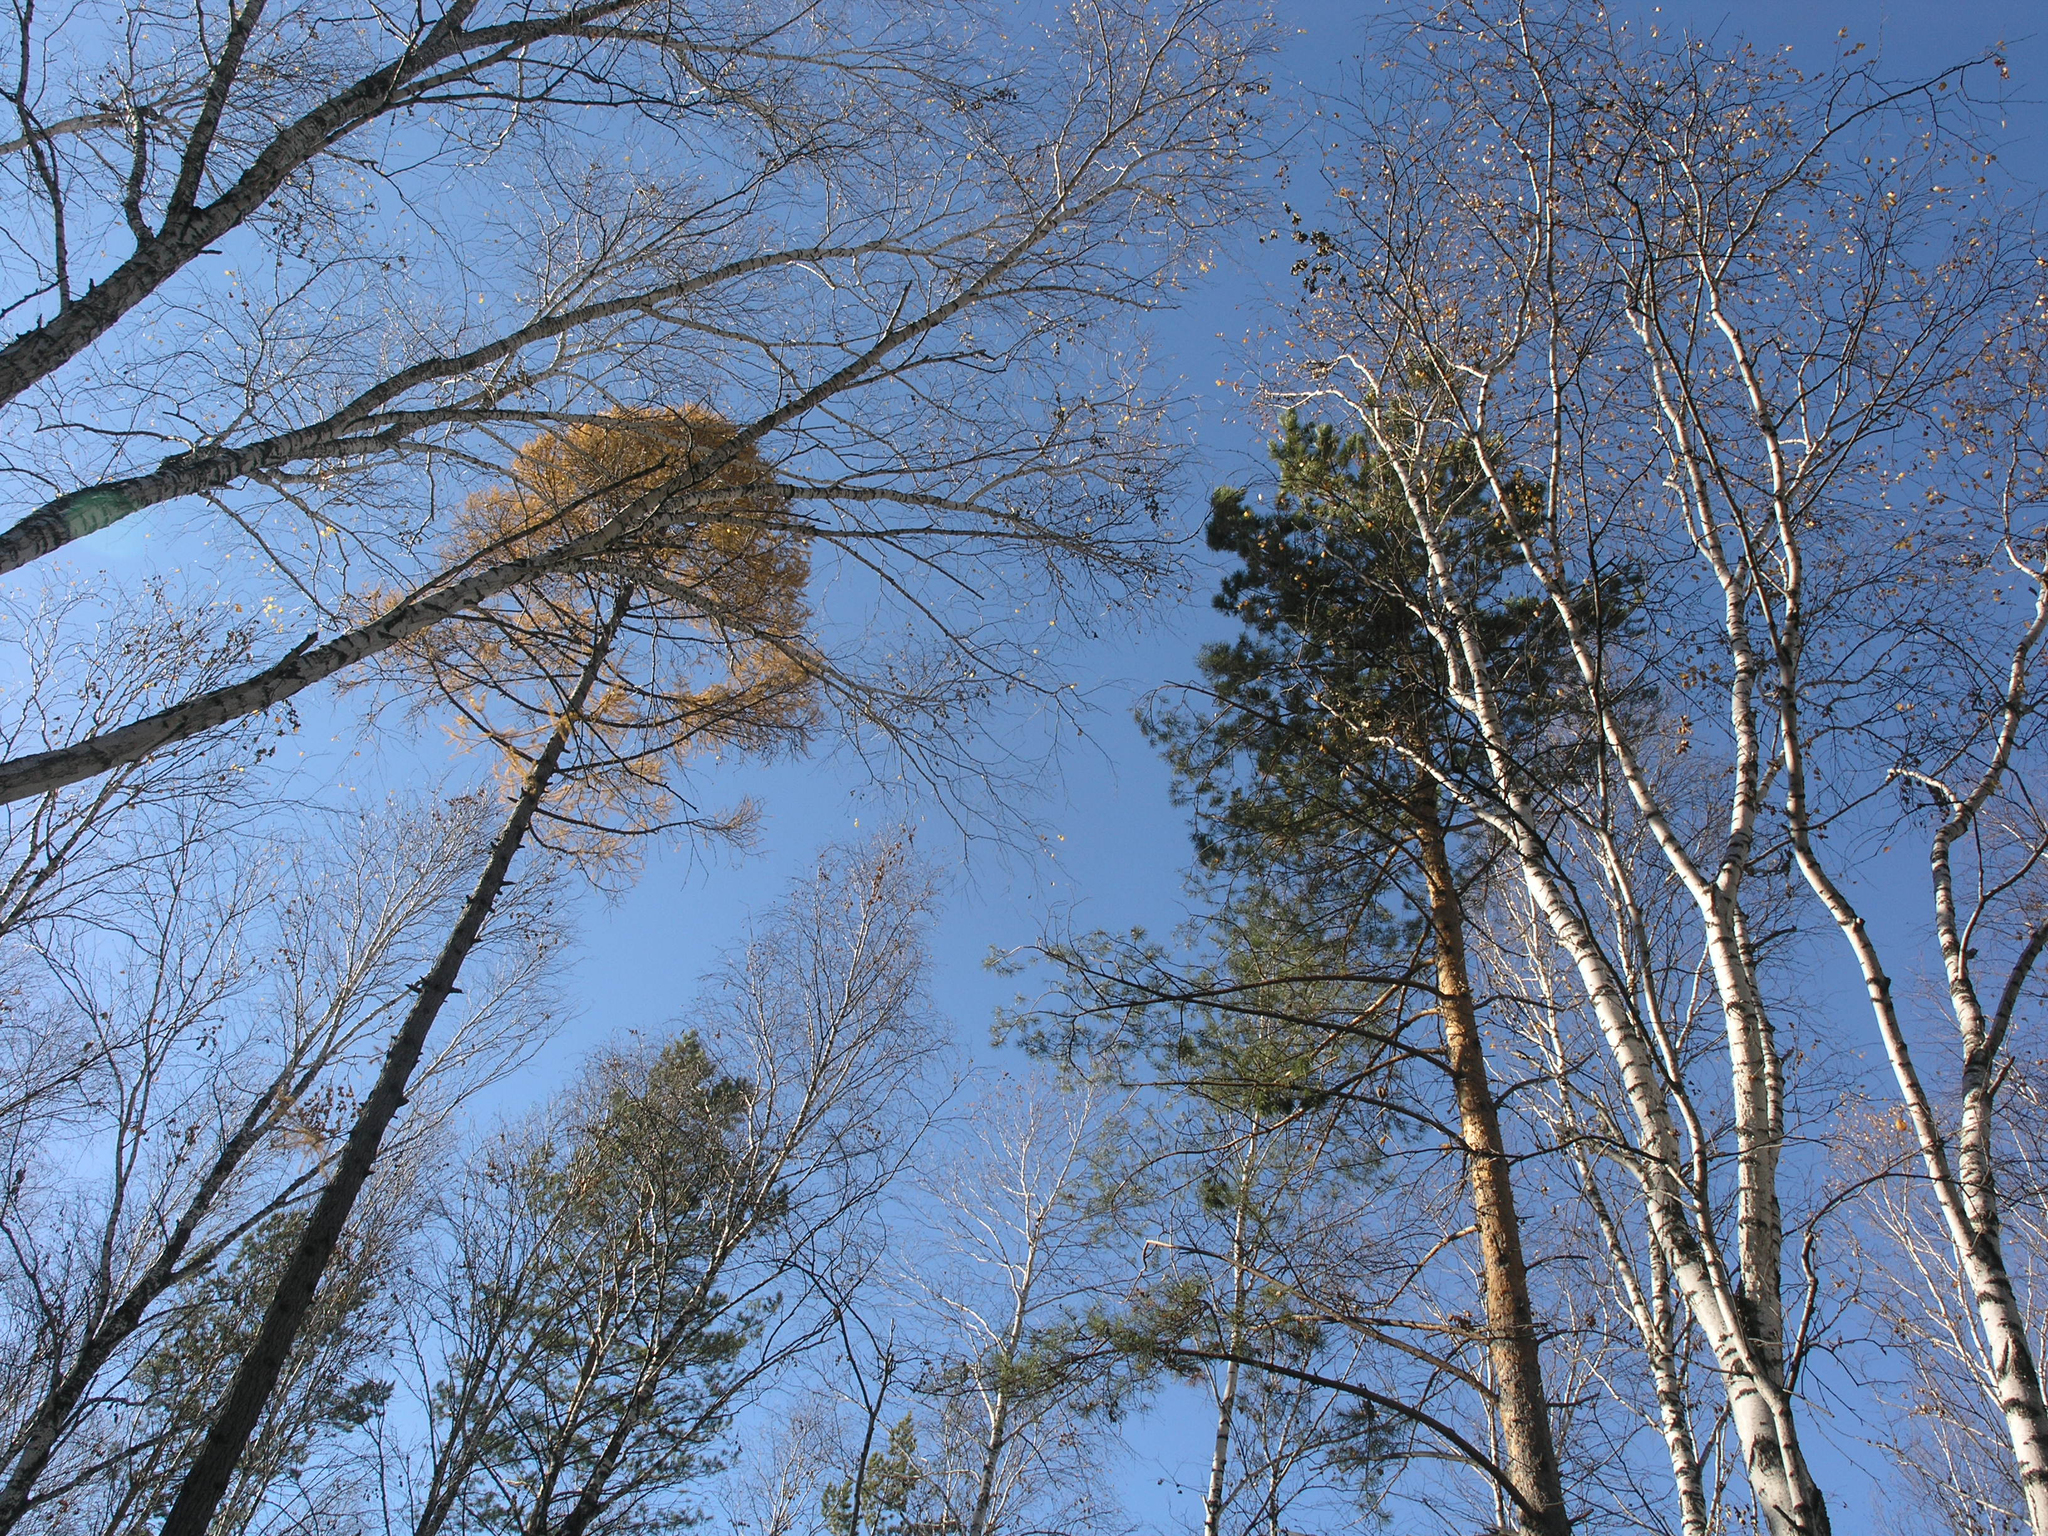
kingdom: Plantae
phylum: Tracheophyta
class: Magnoliopsida
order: Fagales
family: Betulaceae
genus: Betula
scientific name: Betula pubescens
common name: Downy birch
